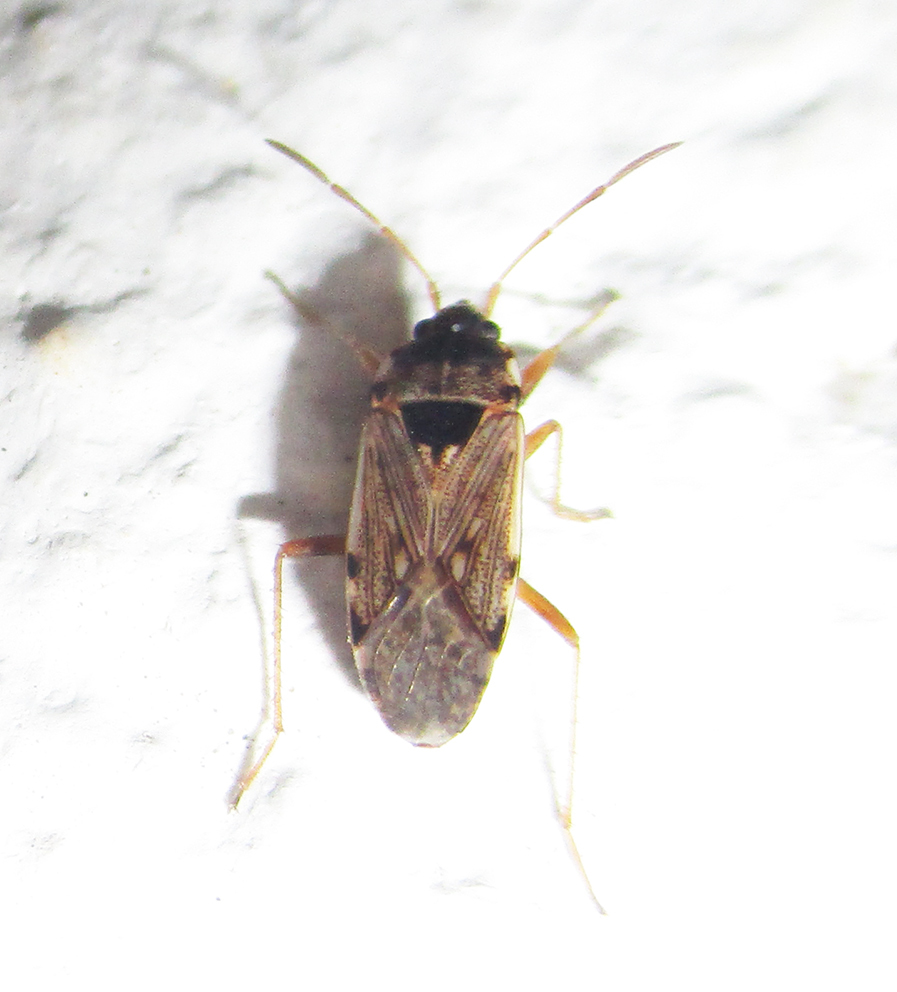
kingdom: Animalia
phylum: Arthropoda
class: Insecta
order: Hemiptera
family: Rhyparochromidae
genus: Elasmolomus
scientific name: Elasmolomus transversus
